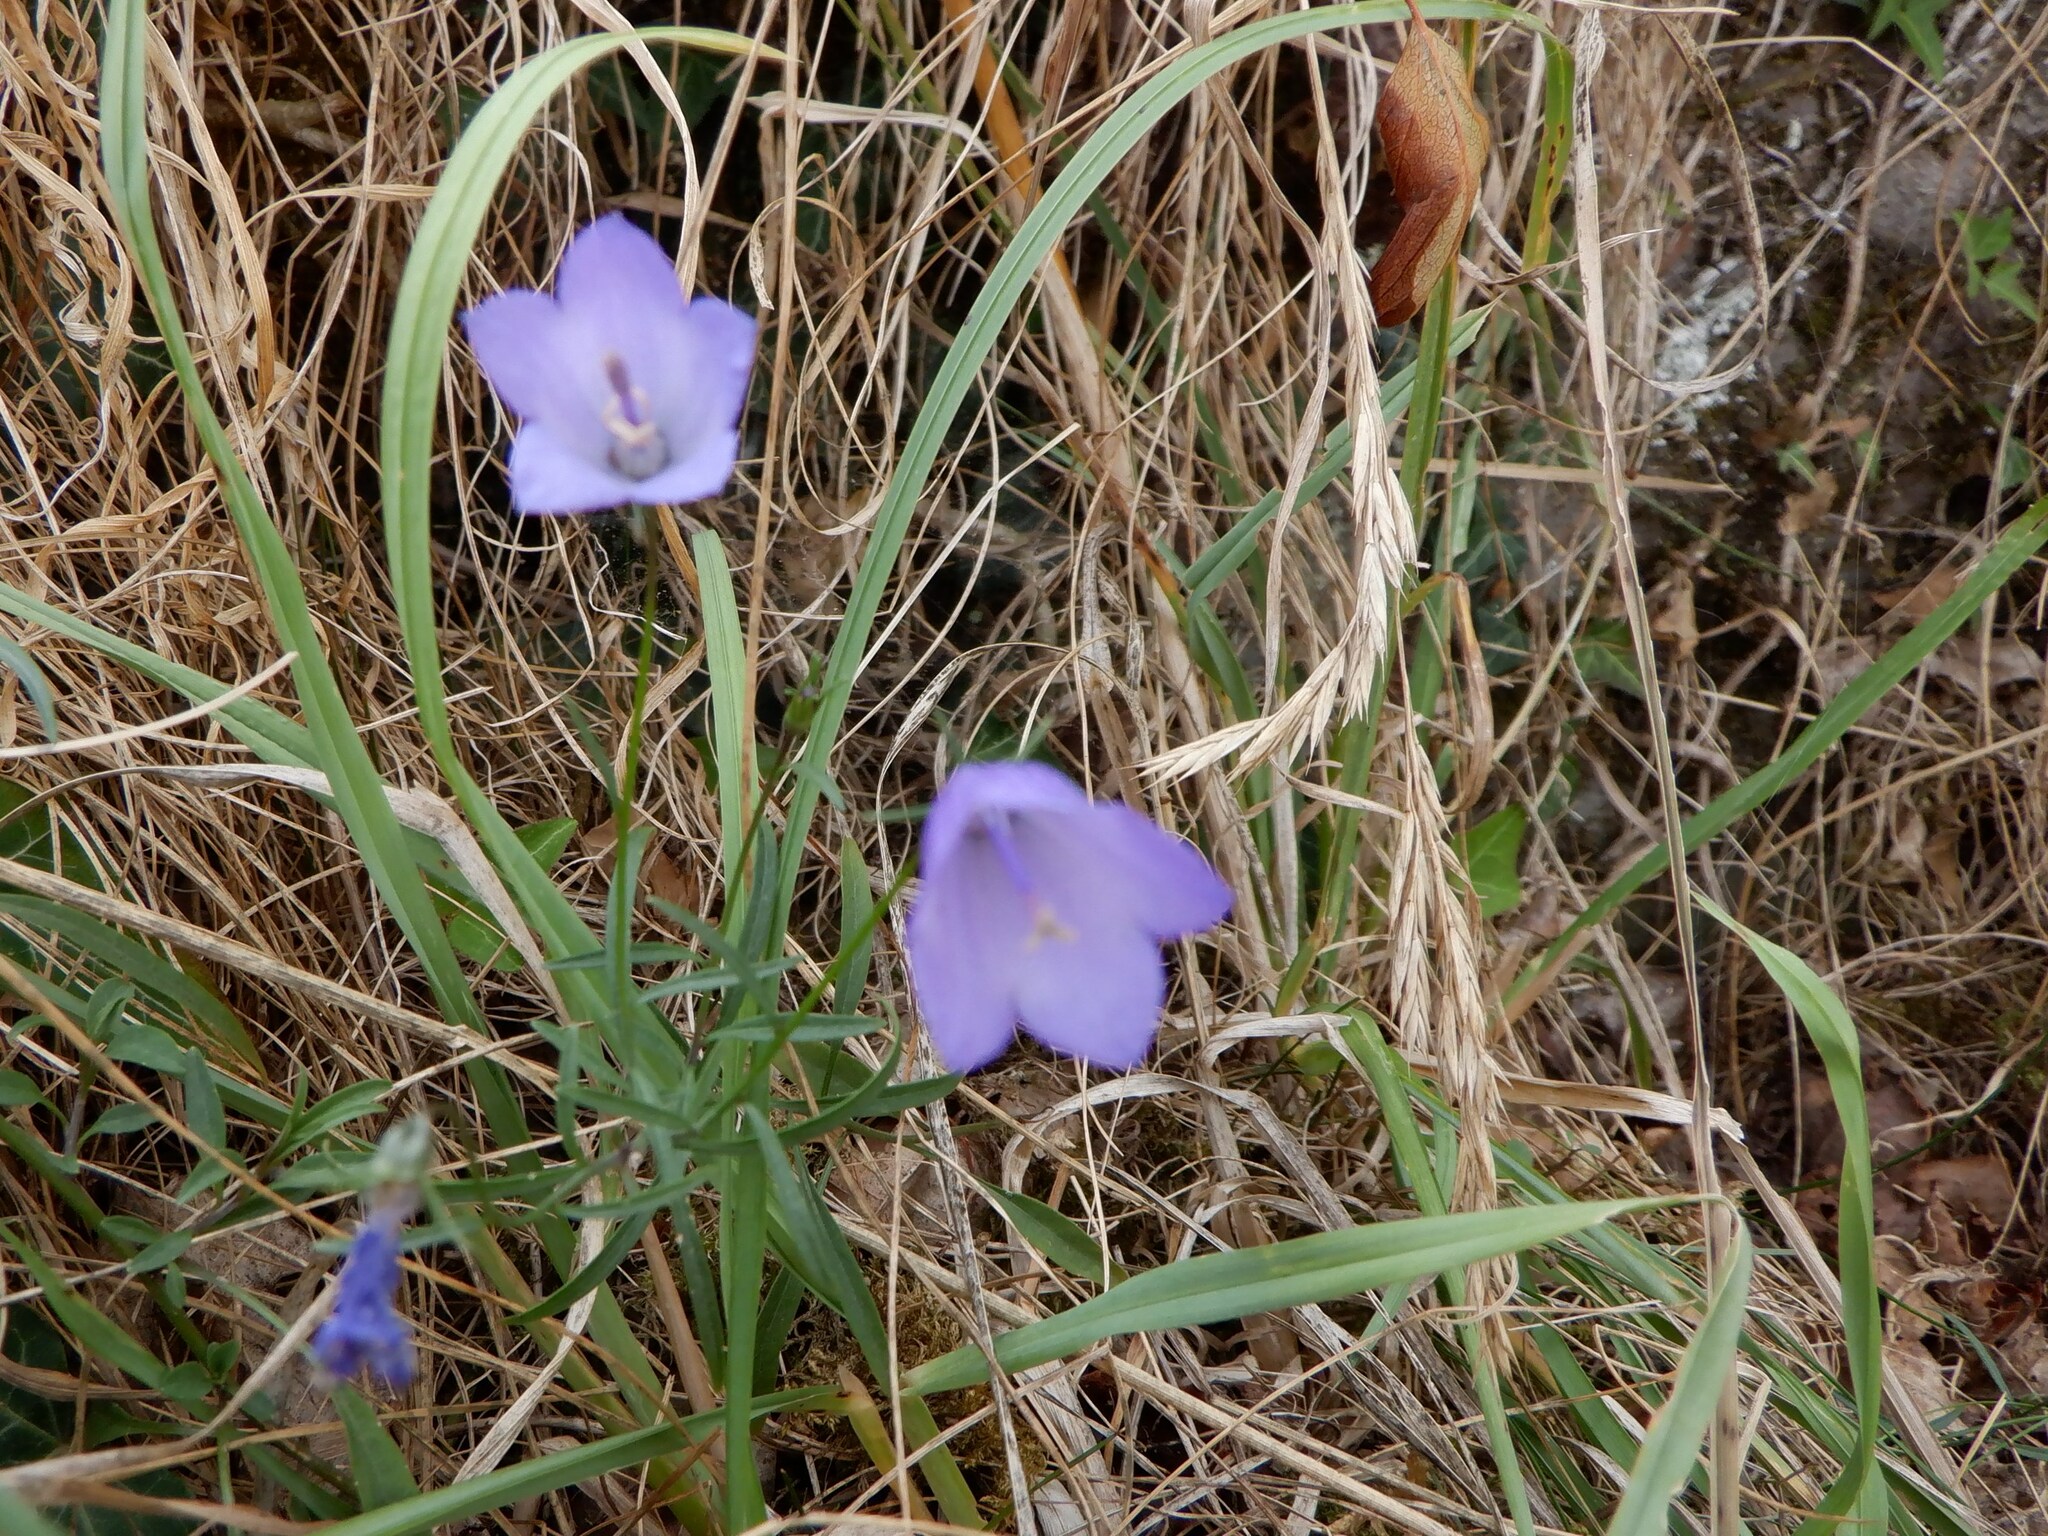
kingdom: Plantae
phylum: Tracheophyta
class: Magnoliopsida
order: Asterales
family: Campanulaceae
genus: Campanula
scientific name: Campanula rotundifolia
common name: Harebell
